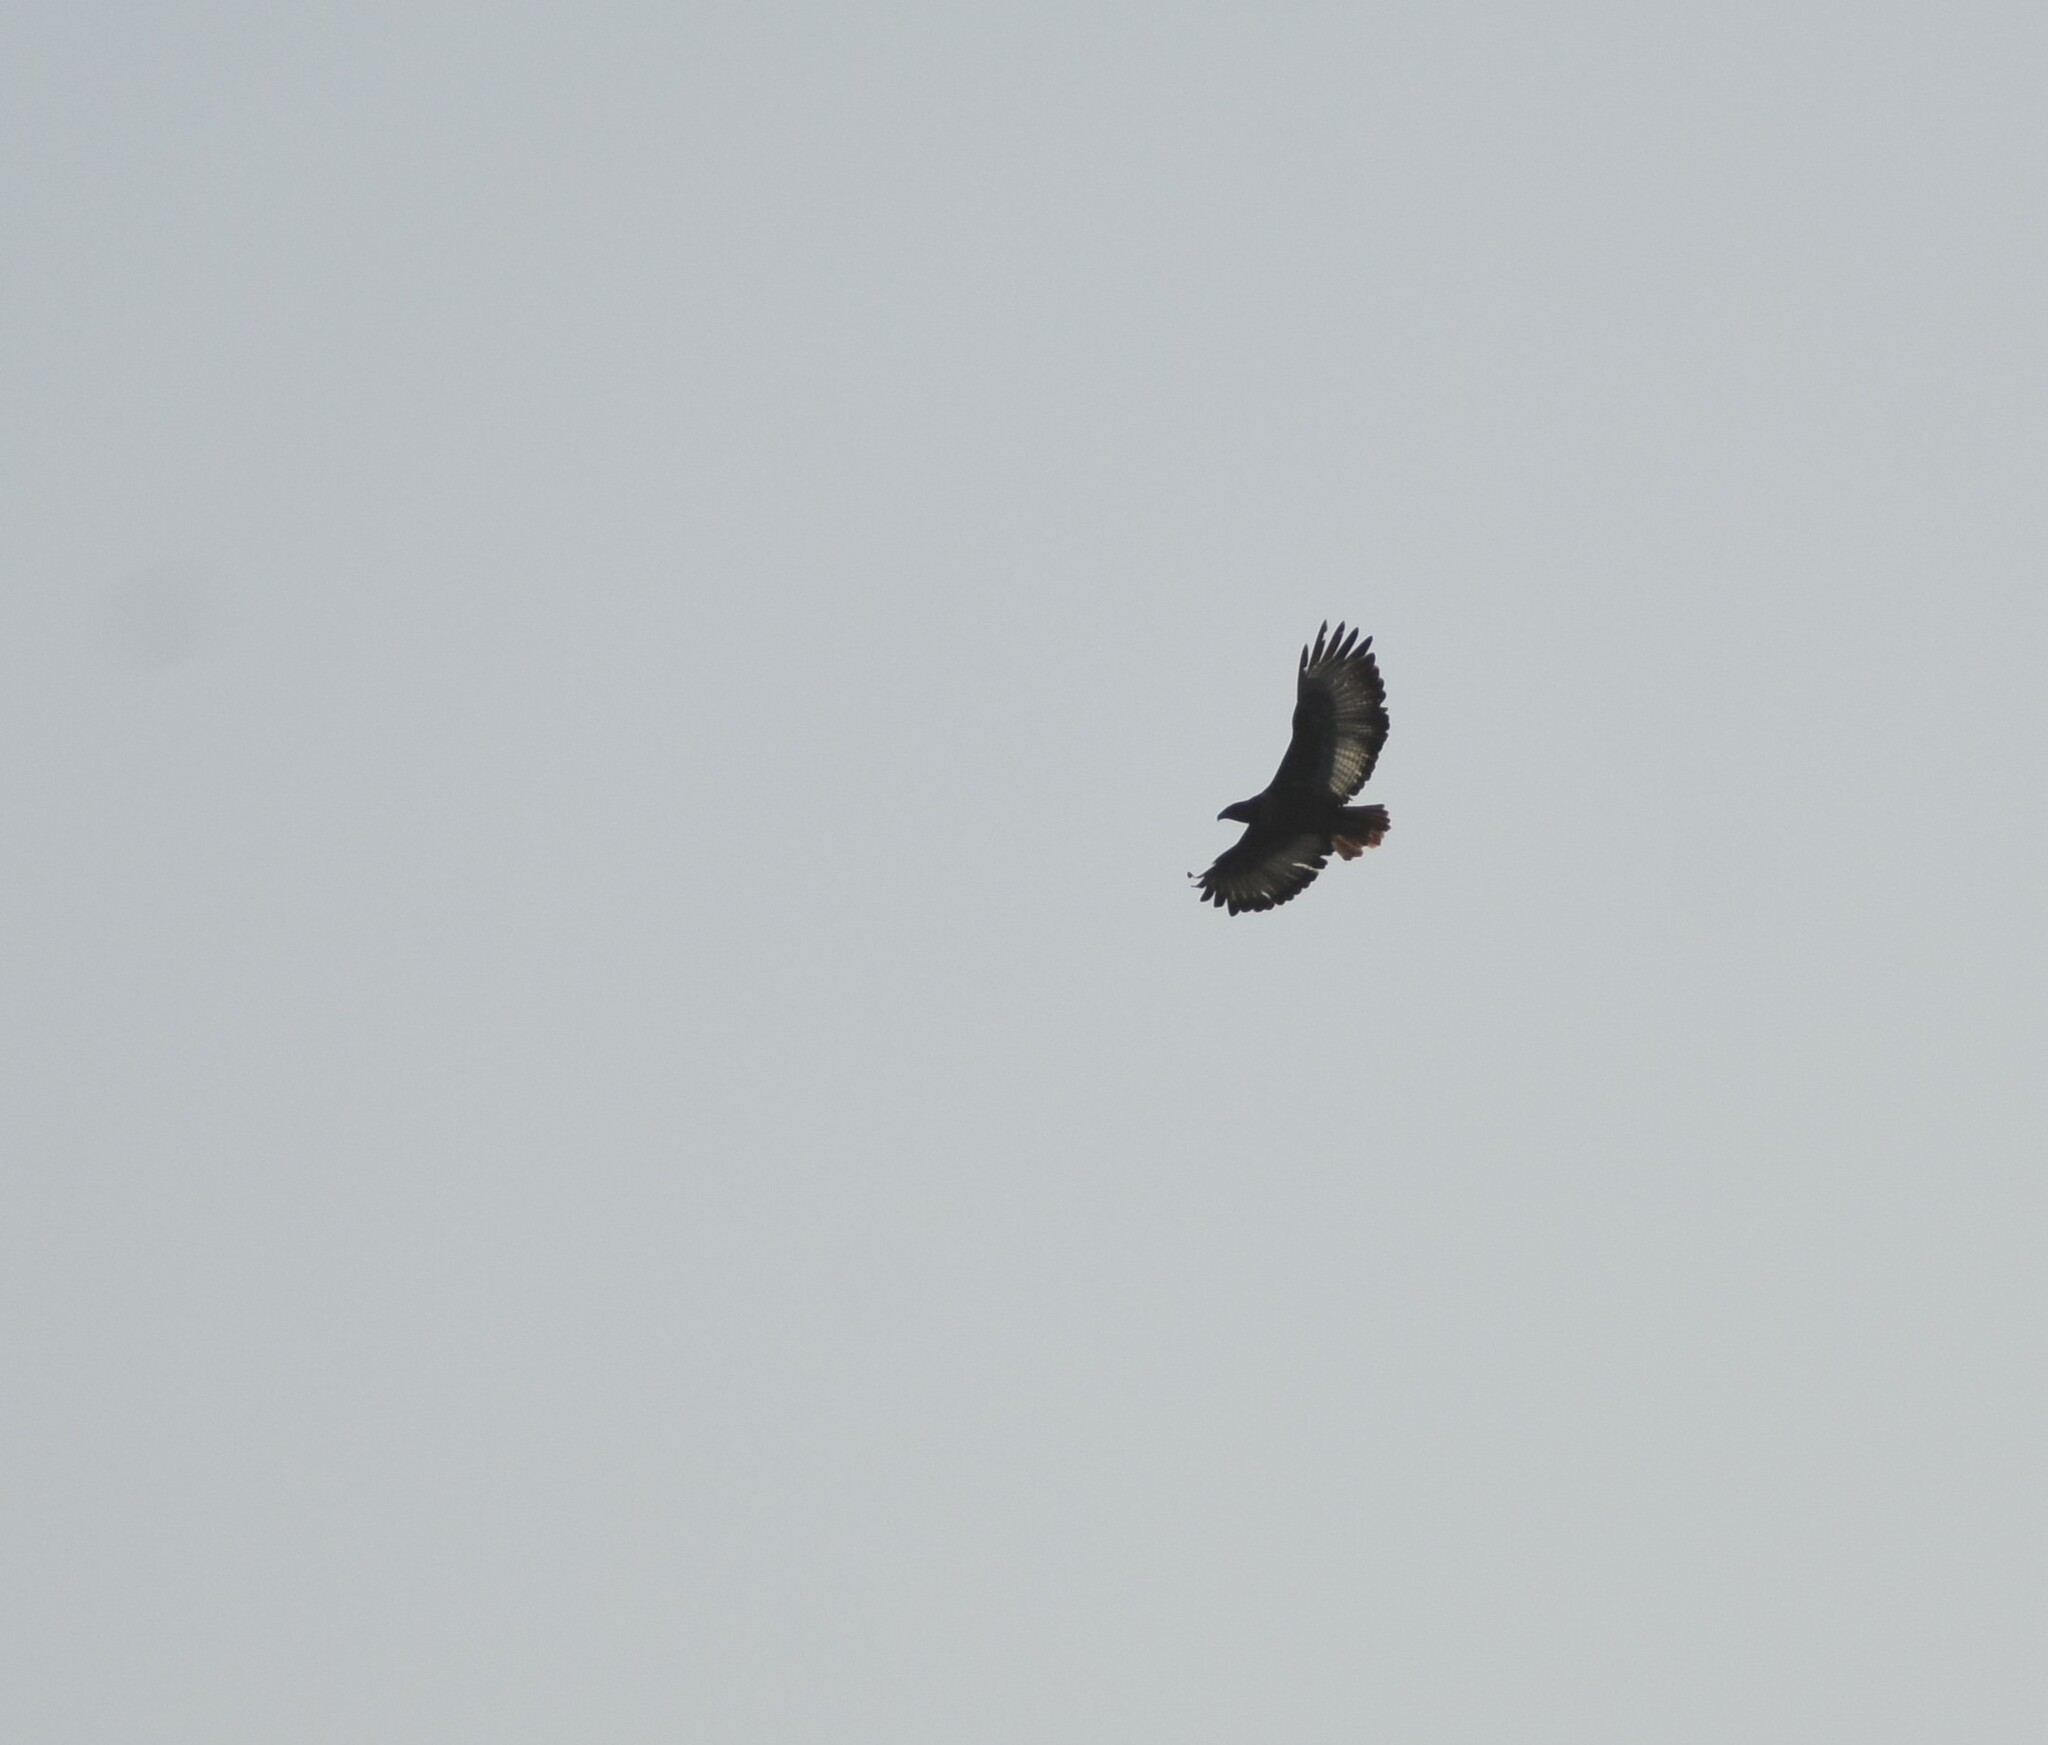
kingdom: Animalia
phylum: Chordata
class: Aves
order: Accipitriformes
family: Accipitridae
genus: Buteo
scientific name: Buteo rufofuscus
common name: Jackal buzzard
